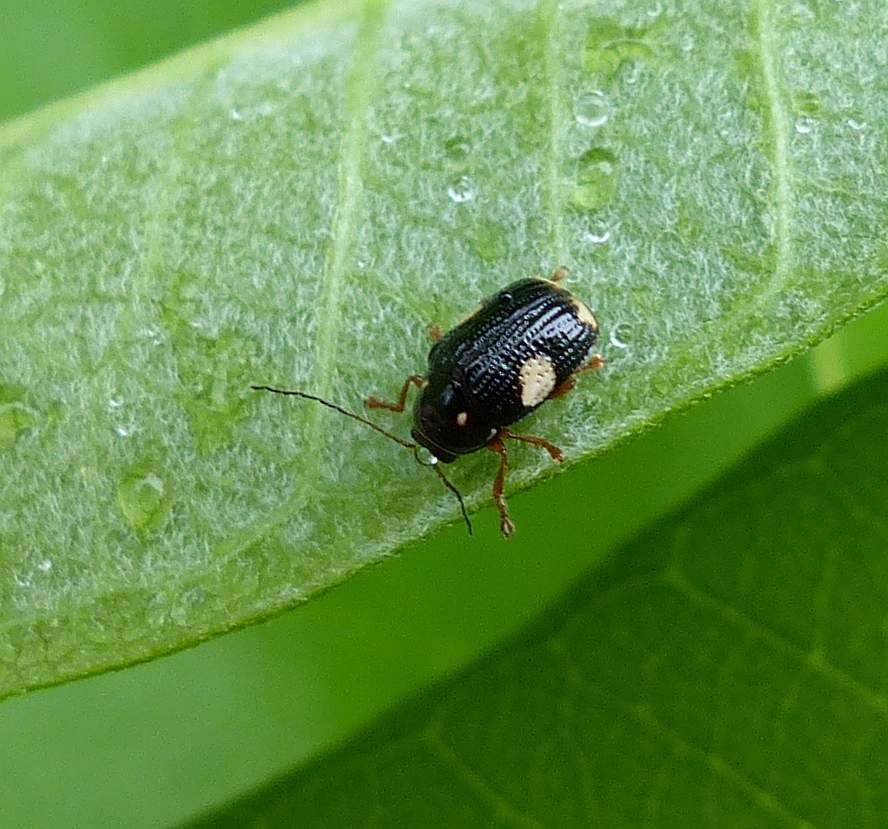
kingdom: Animalia
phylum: Arthropoda
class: Insecta
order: Coleoptera
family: Chrysomelidae
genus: Bassareus
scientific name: Bassareus mammifer
